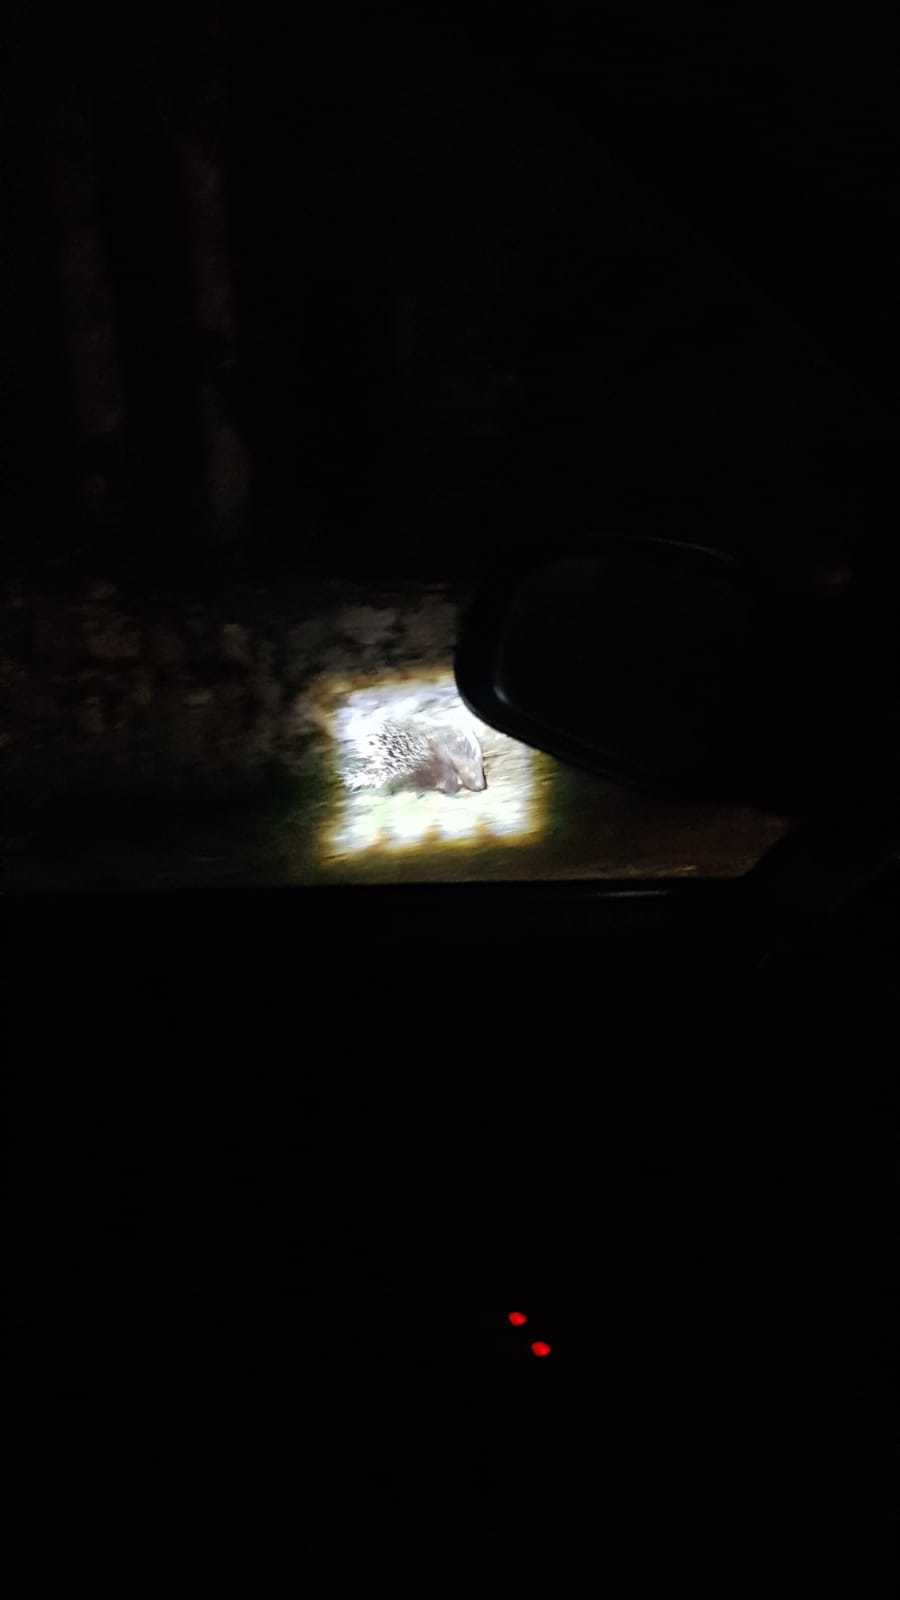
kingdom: Animalia
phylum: Chordata
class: Mammalia
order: Rodentia
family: Hystricidae
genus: Hystrix
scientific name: Hystrix cristata
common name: Crested porcupine
